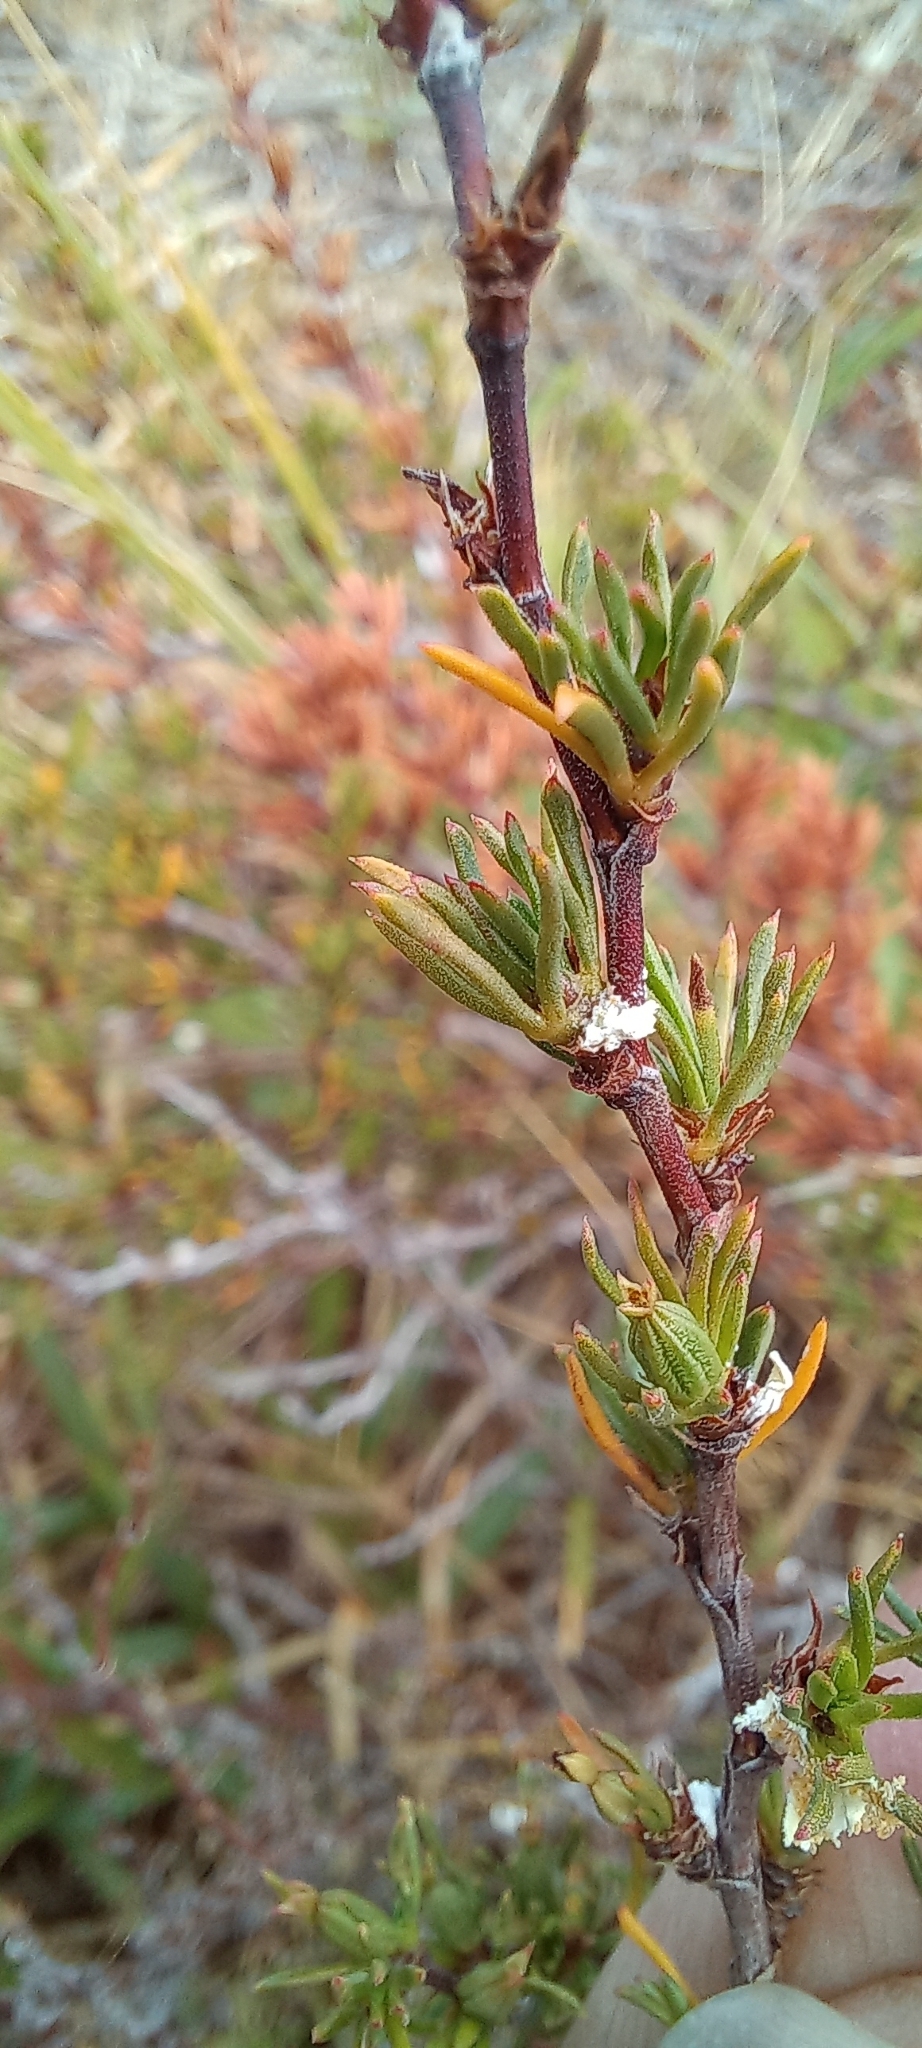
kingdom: Plantae
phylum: Tracheophyta
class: Magnoliopsida
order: Rosales
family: Rosaceae
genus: Cliffortia
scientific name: Cliffortia juniperina
